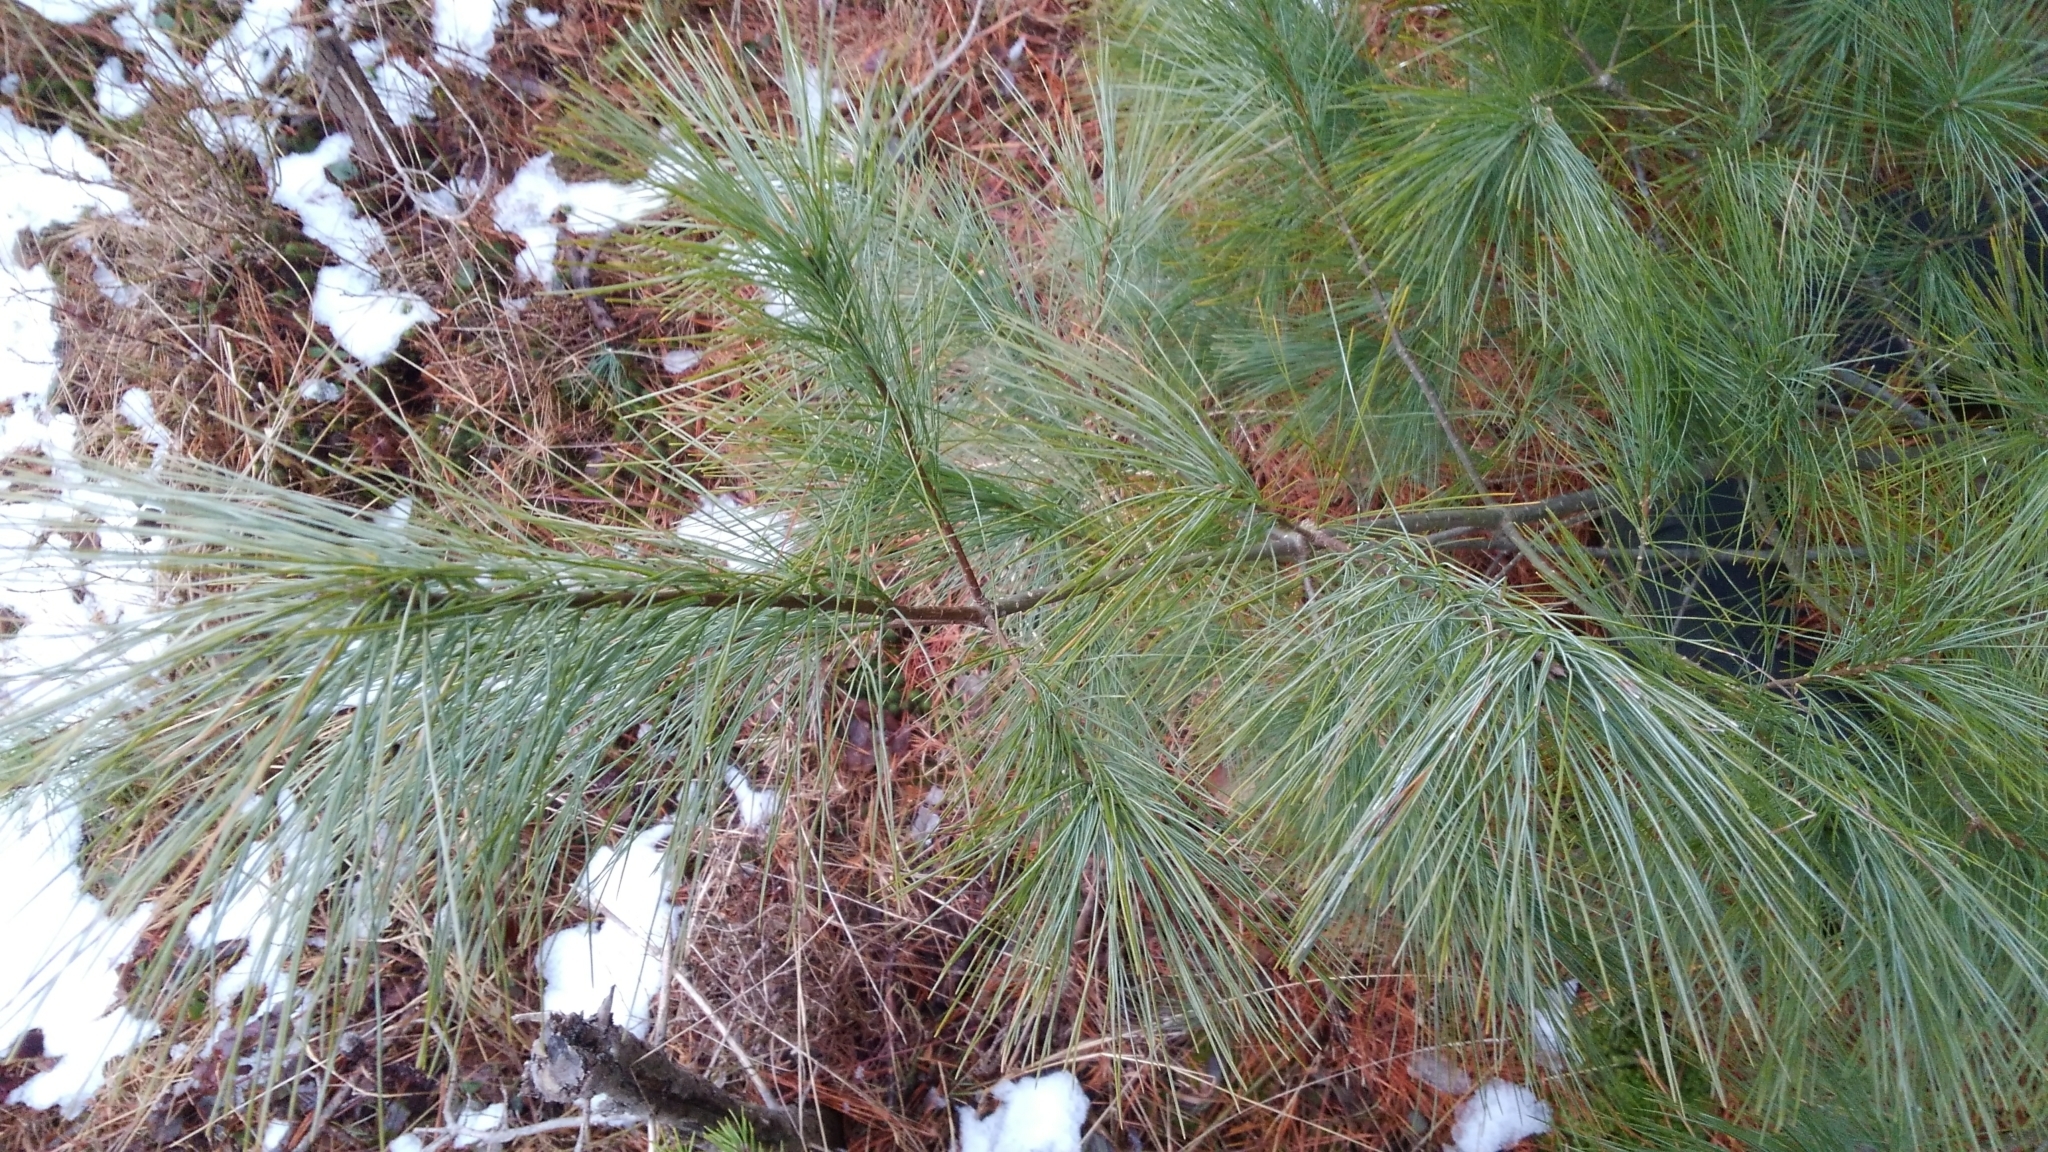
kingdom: Plantae
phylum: Tracheophyta
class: Pinopsida
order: Pinales
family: Pinaceae
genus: Pinus
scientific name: Pinus strobus
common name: Weymouth pine
